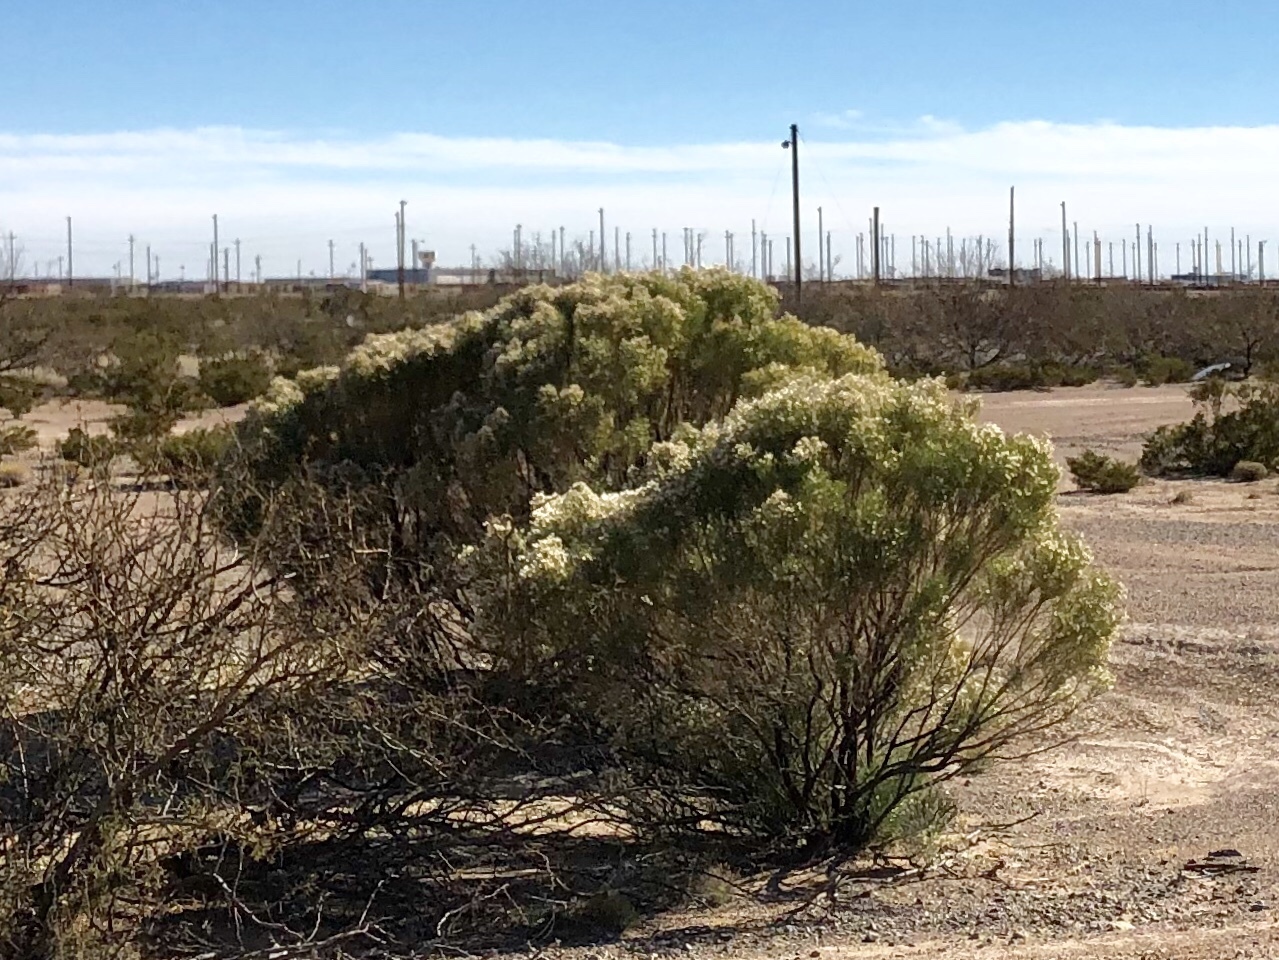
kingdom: Plantae
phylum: Tracheophyta
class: Magnoliopsida
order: Asterales
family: Asteraceae
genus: Baccharis
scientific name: Baccharis sarothroides
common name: Desert-broom
